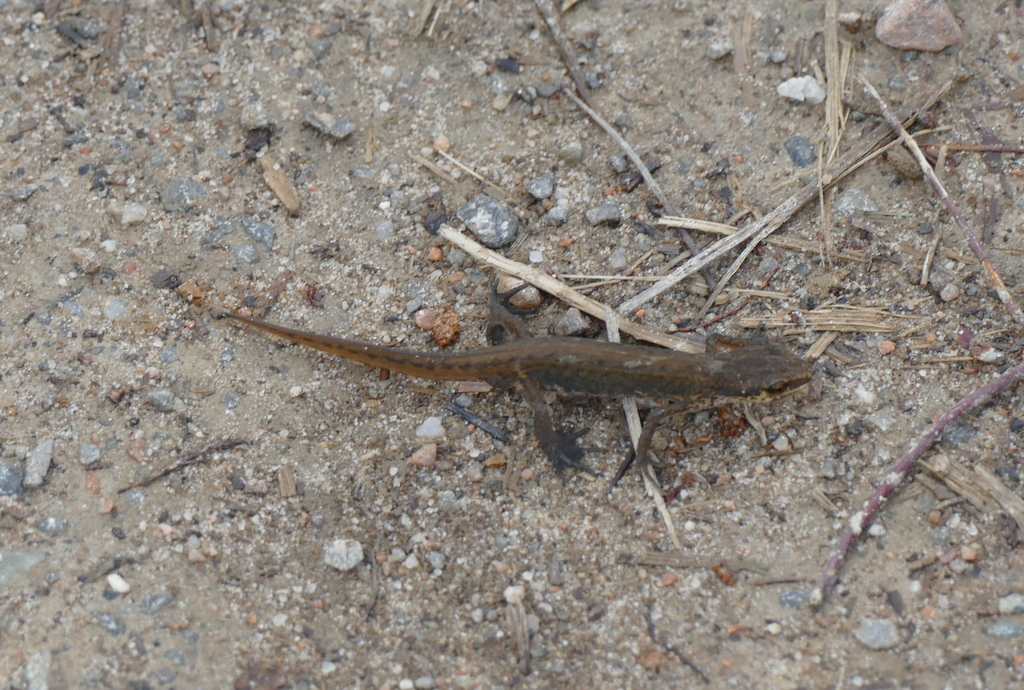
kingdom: Animalia
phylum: Chordata
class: Amphibia
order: Caudata
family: Salamandridae
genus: Lissotriton
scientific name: Lissotriton helveticus
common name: Palmate newt
